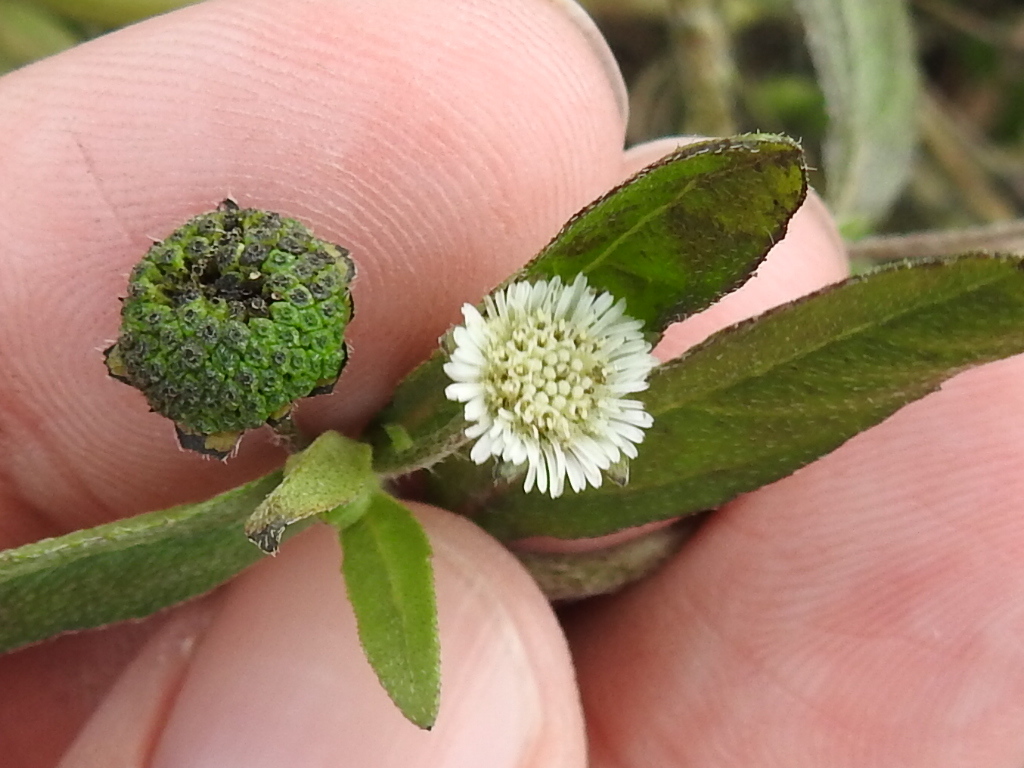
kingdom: Plantae
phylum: Tracheophyta
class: Magnoliopsida
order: Asterales
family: Asteraceae
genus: Eclipta
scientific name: Eclipta prostrata
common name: False daisy
